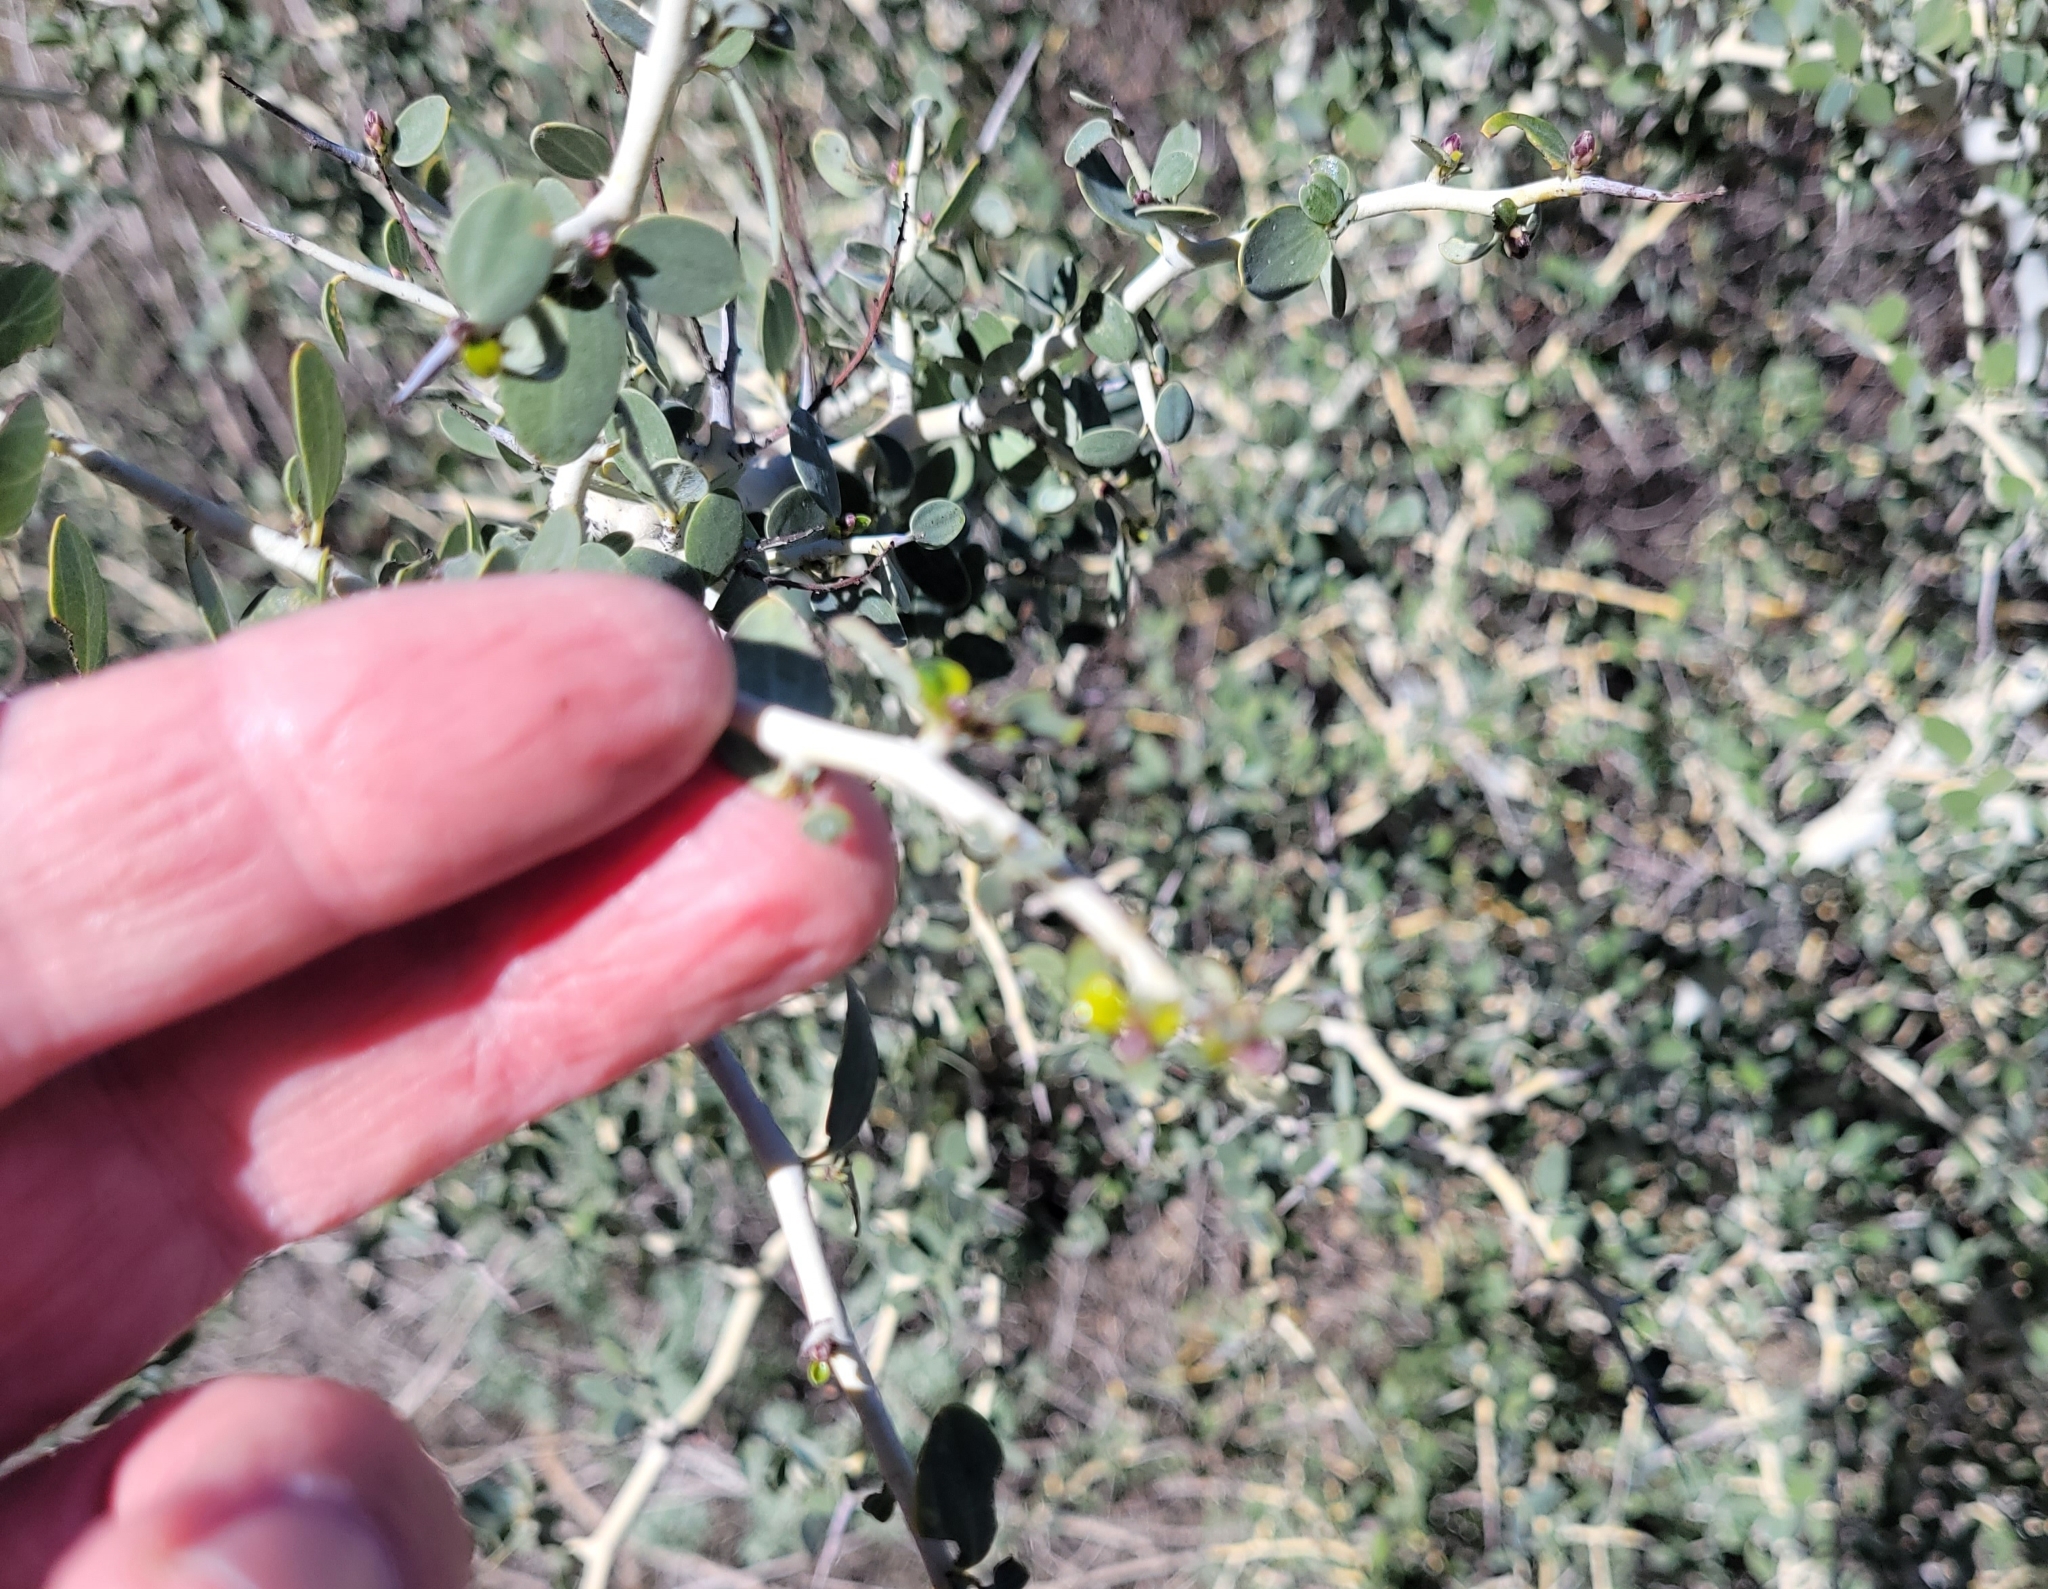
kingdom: Plantae
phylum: Tracheophyta
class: Magnoliopsida
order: Rosales
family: Rhamnaceae
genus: Ceanothus
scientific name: Ceanothus leucodermis
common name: Chaparral whitethorn
